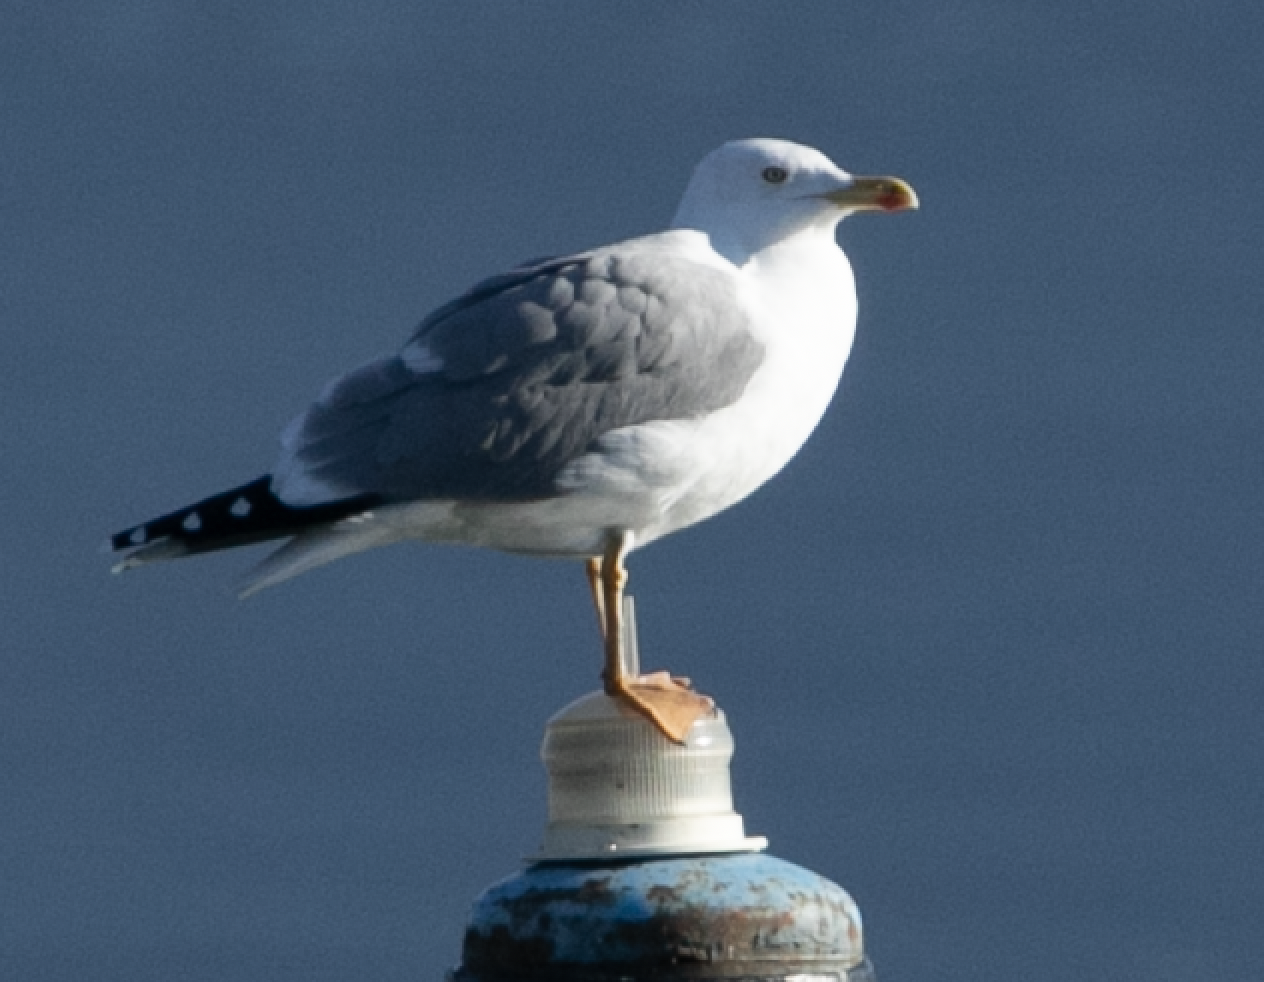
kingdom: Animalia
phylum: Chordata
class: Aves
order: Charadriiformes
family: Laridae
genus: Larus
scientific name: Larus michahellis
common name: Yellow-legged gull
